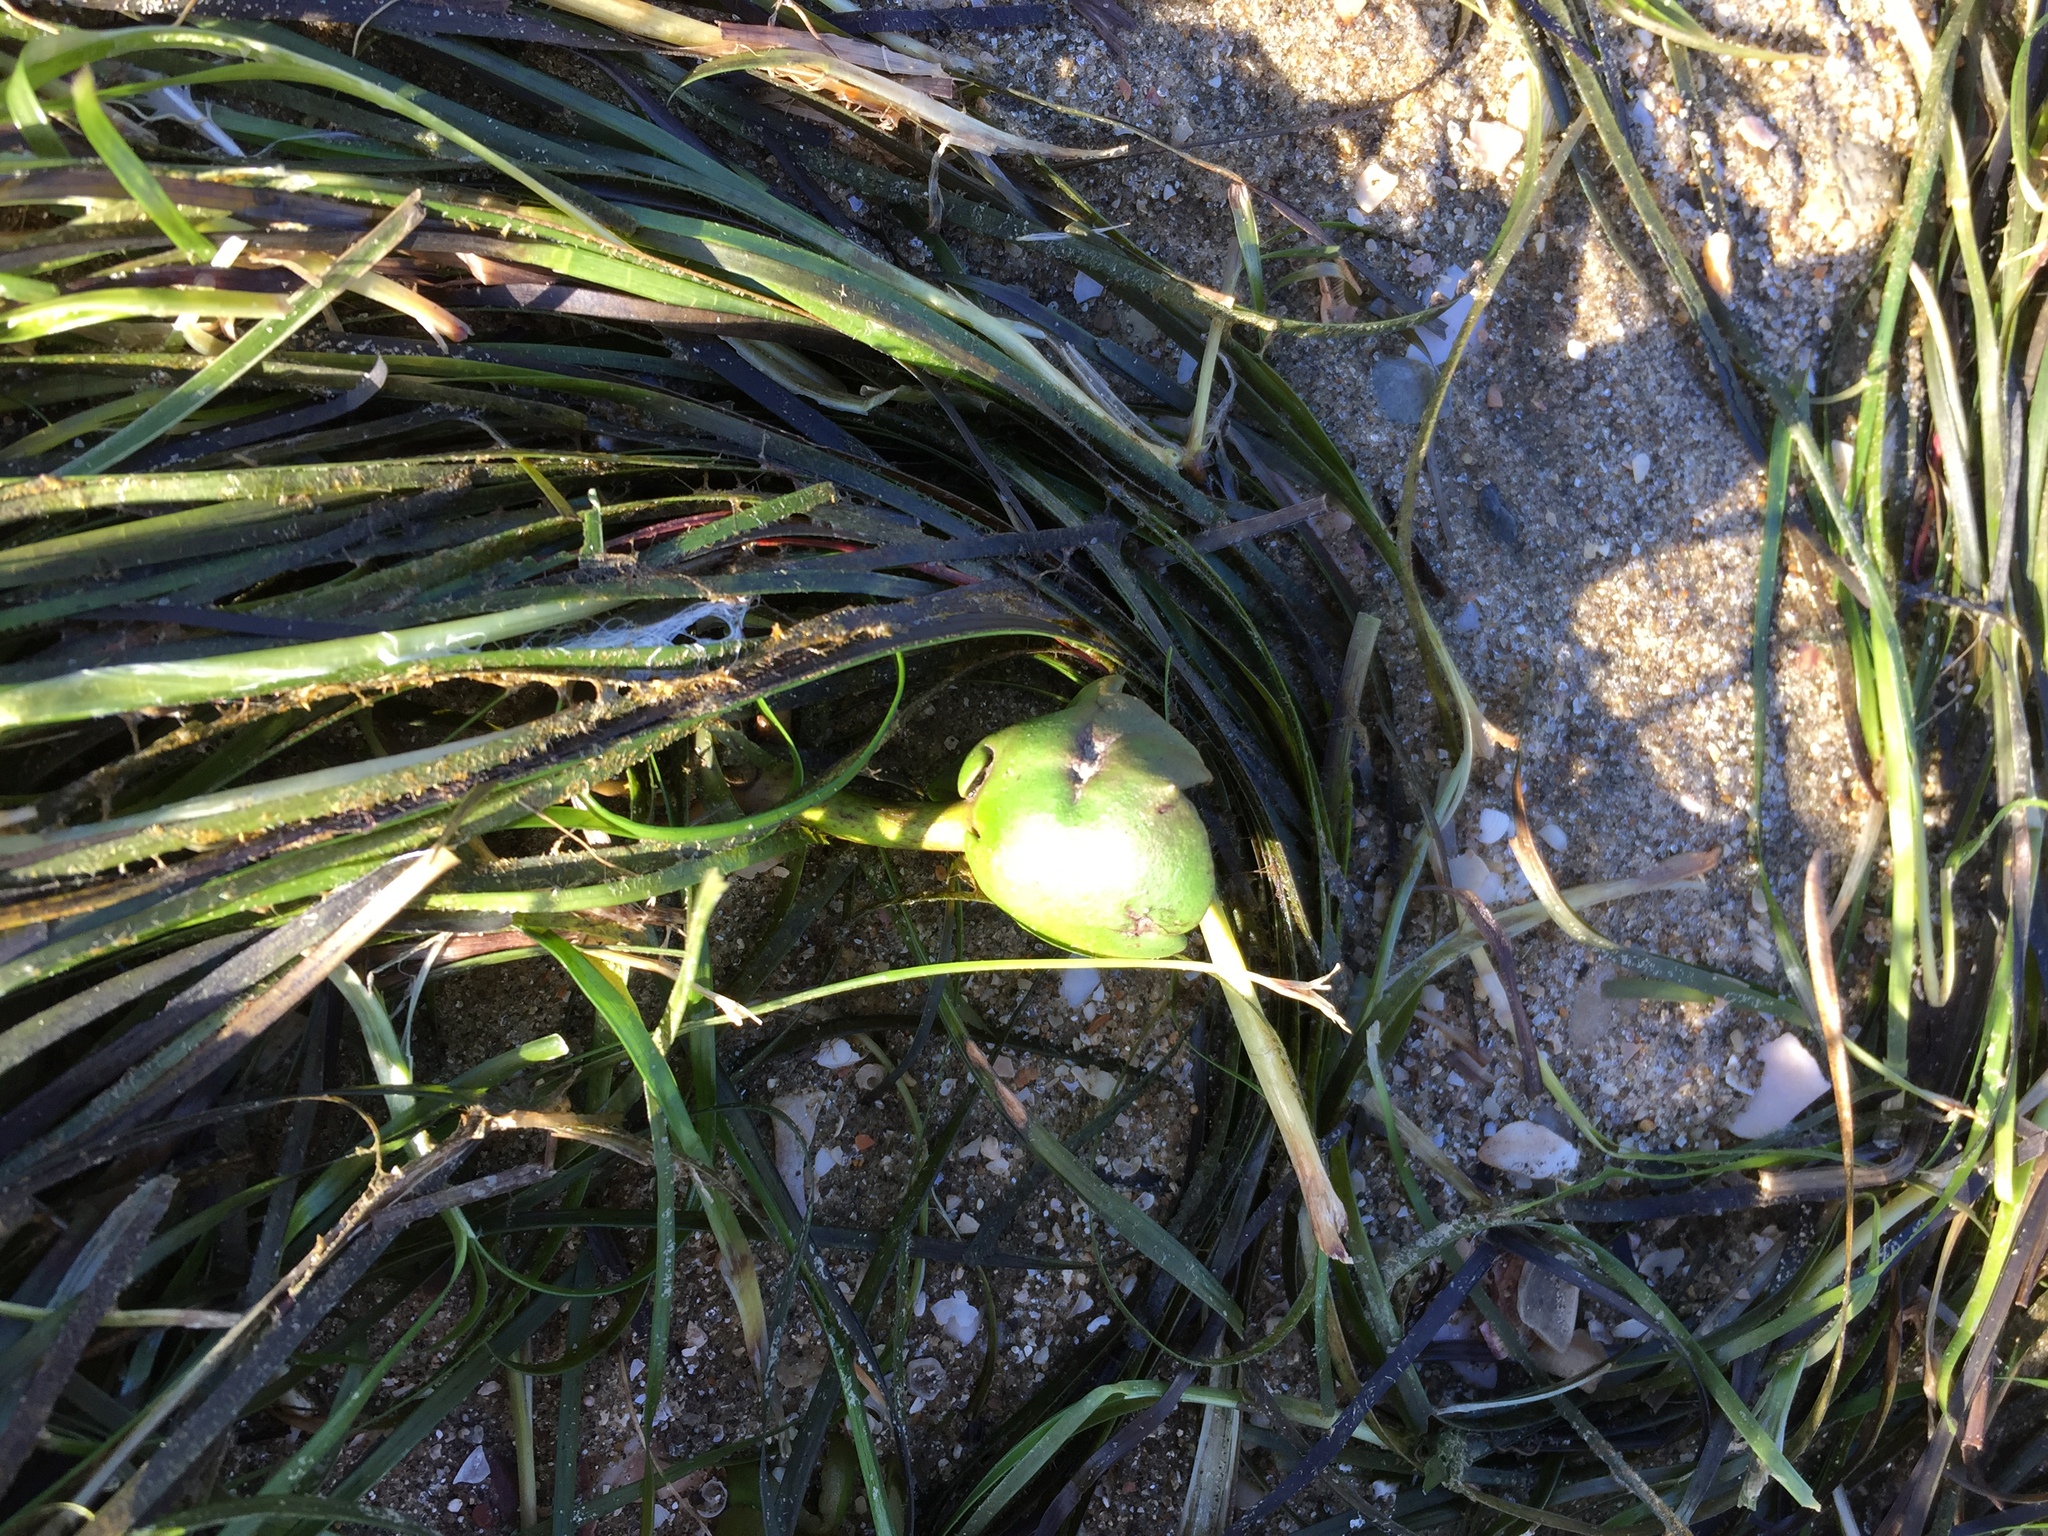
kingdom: Plantae
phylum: Tracheophyta
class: Magnoliopsida
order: Lamiales
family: Acanthaceae
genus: Avicennia
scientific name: Avicennia marina
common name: Gray mangrove
